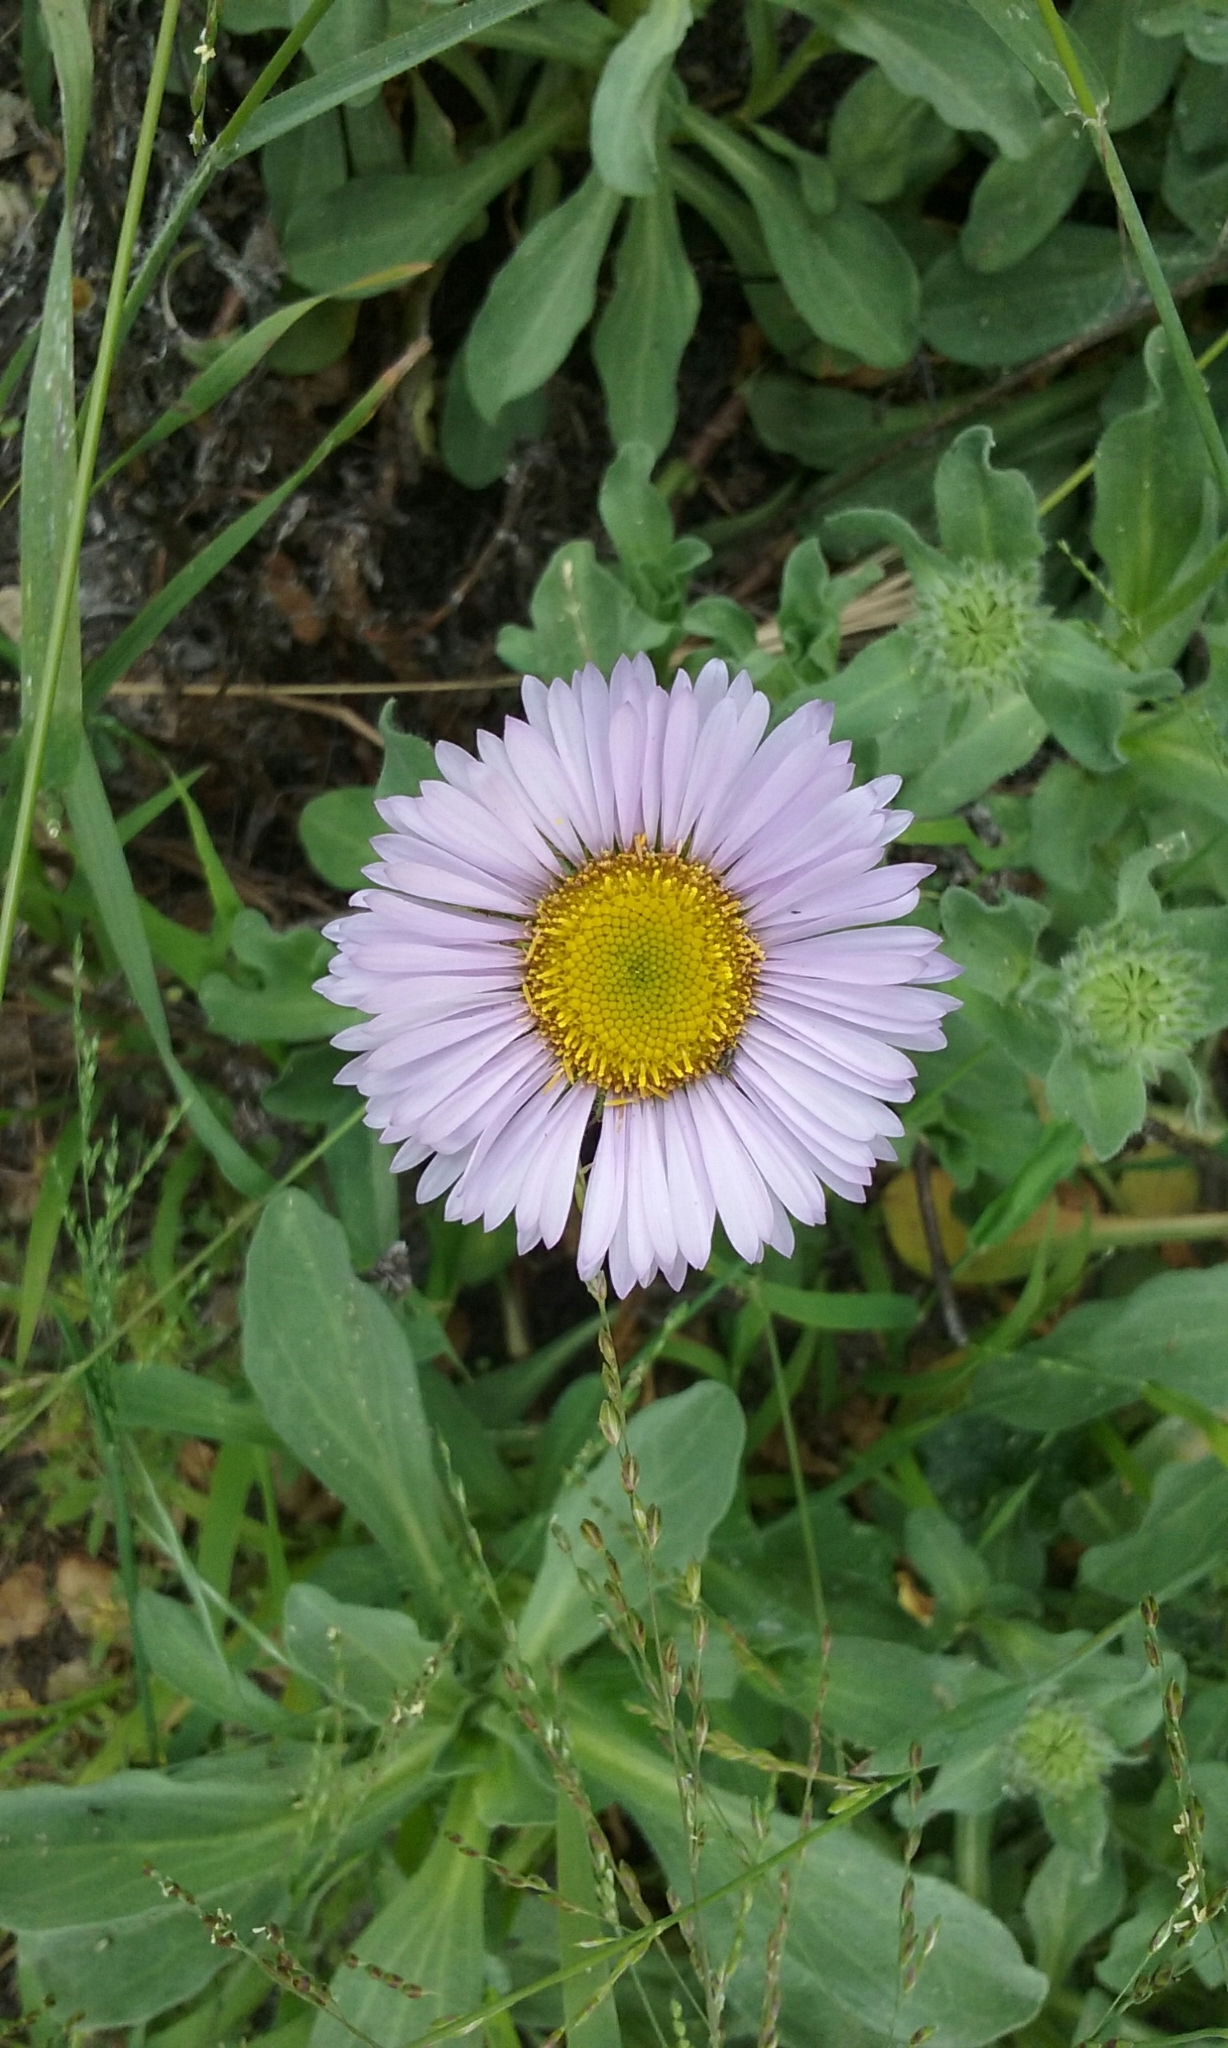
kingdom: Plantae
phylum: Tracheophyta
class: Magnoliopsida
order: Asterales
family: Asteraceae
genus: Erigeron
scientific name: Erigeron glaucus
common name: Seaside daisy
